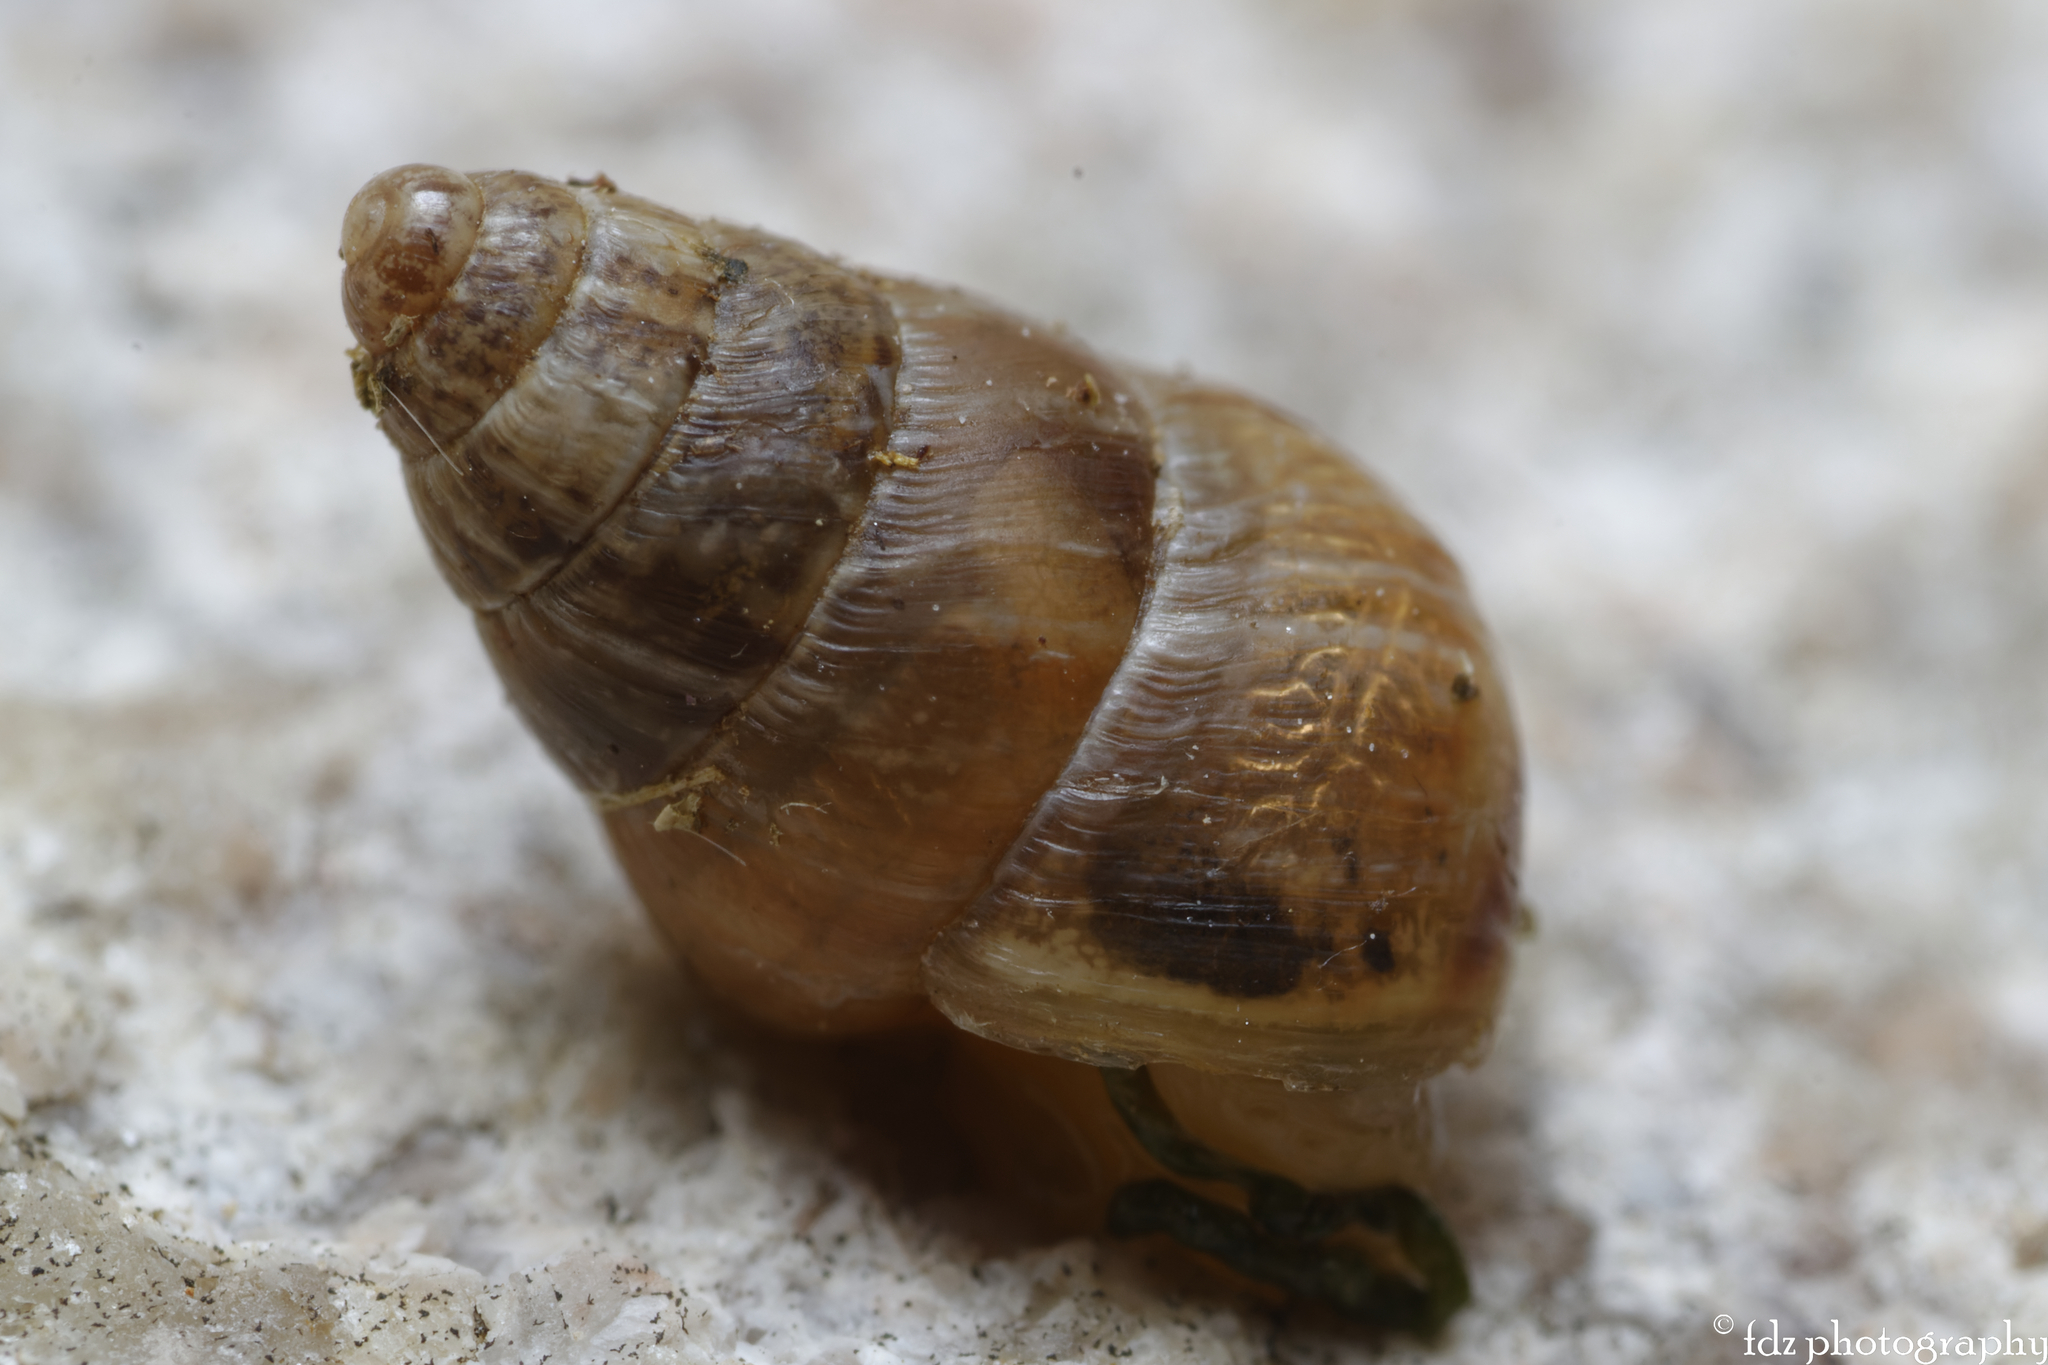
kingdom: Animalia
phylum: Mollusca
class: Gastropoda
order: Stylommatophora
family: Geomitridae
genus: Cochlicella
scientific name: Cochlicella barbara
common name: Potbellied helicellid
